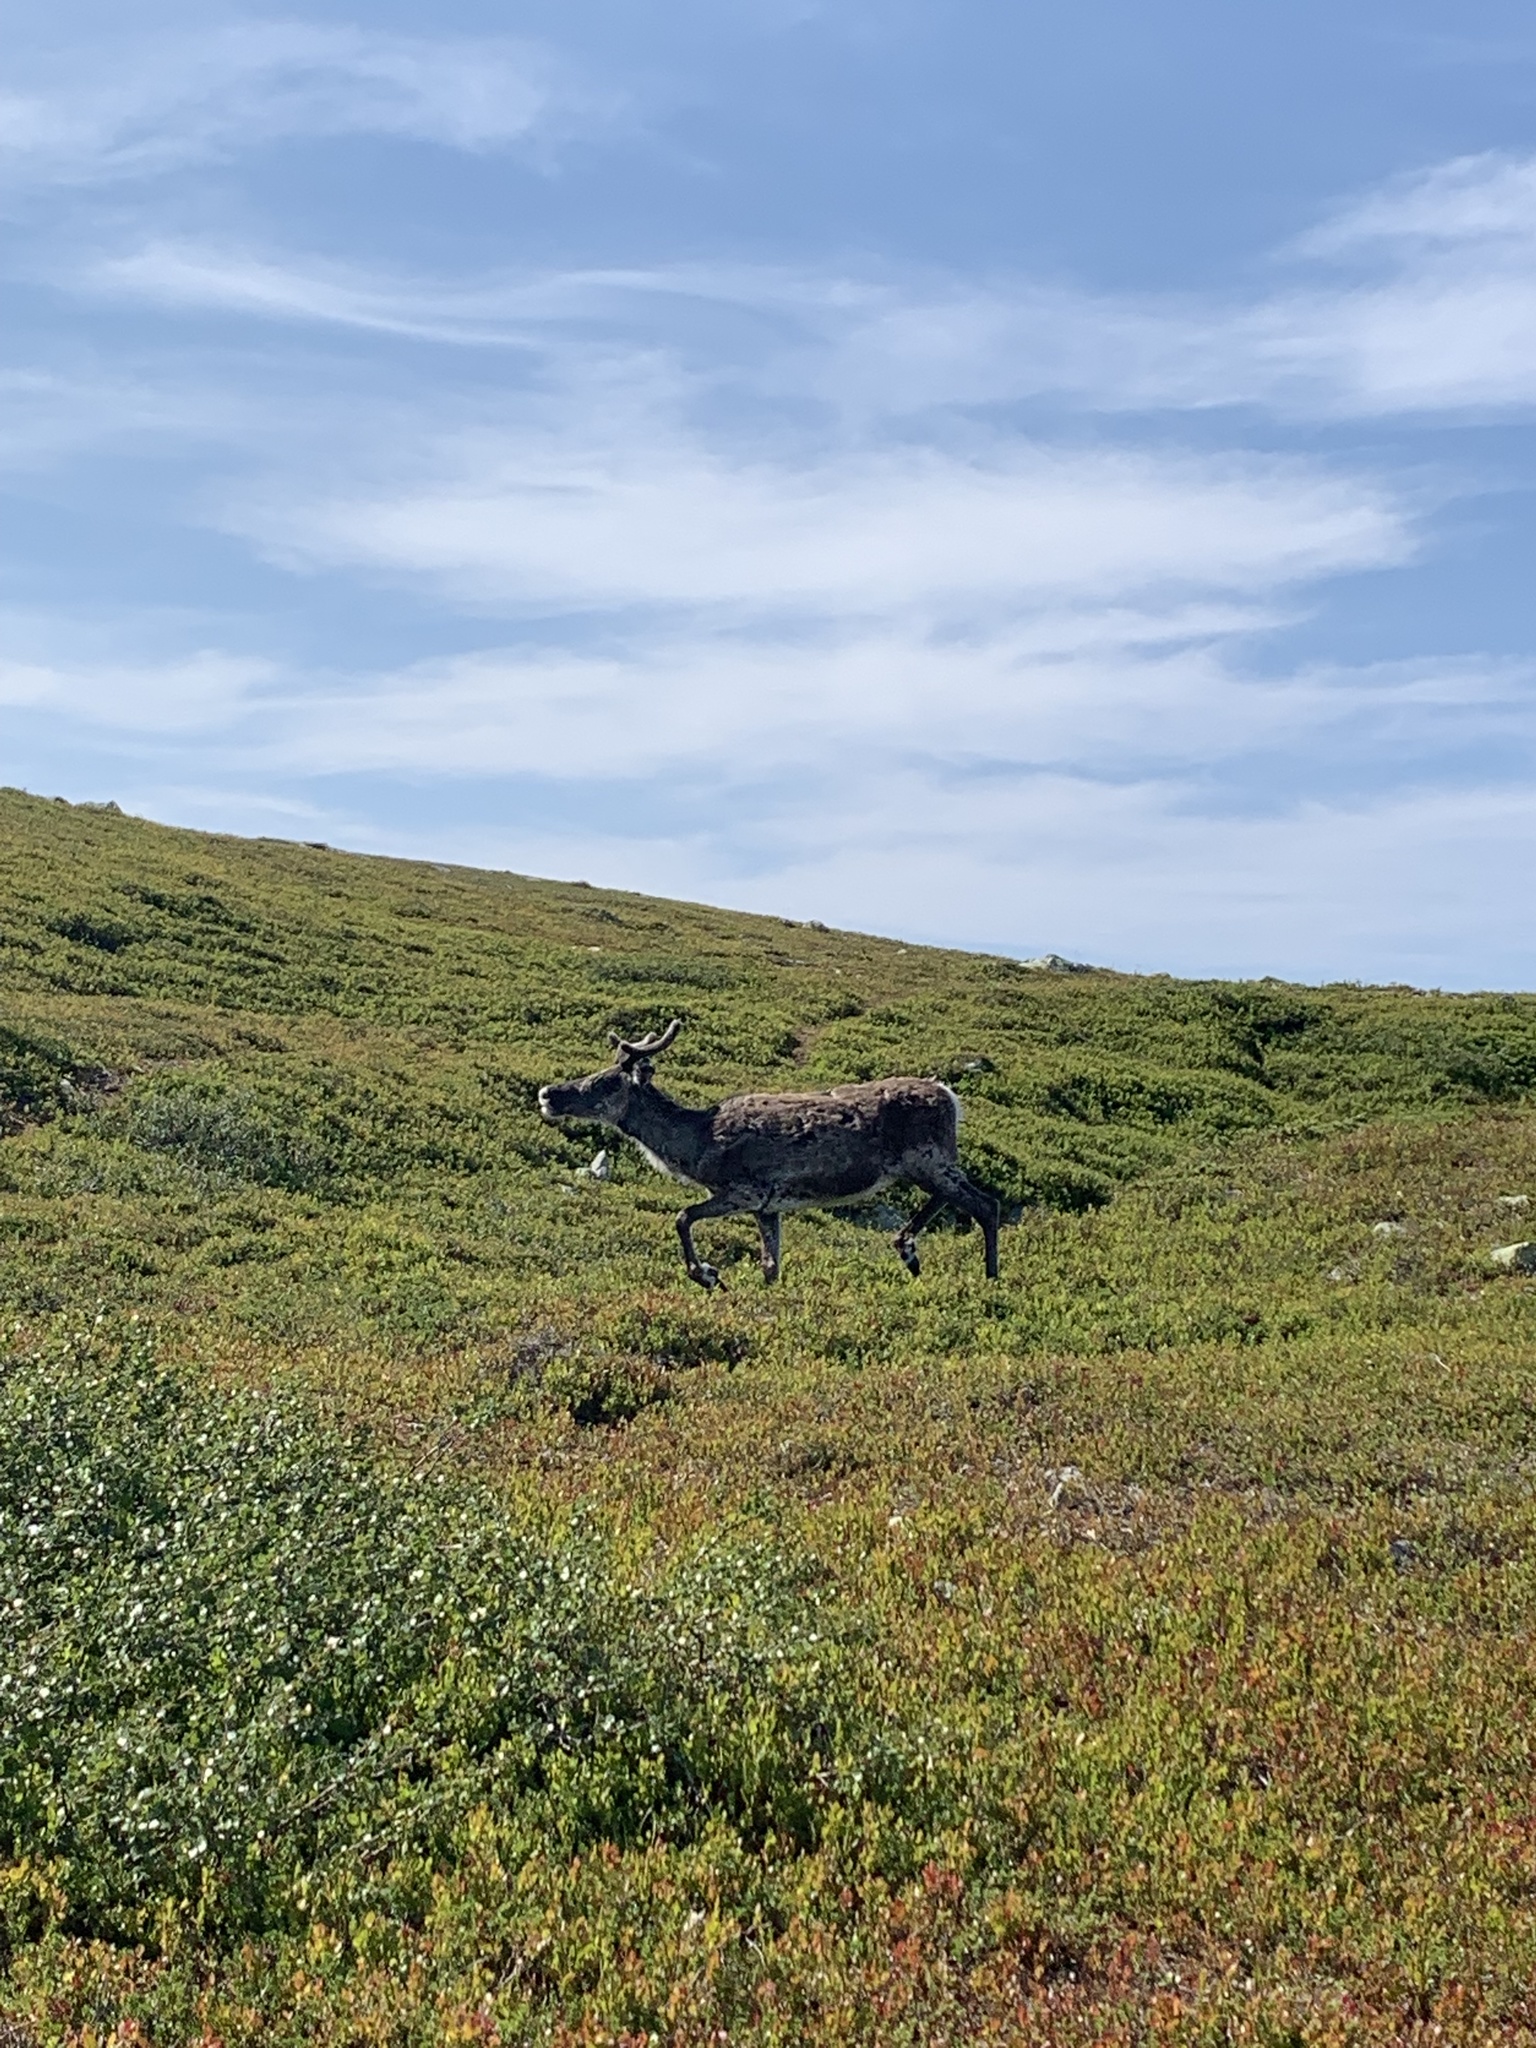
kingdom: Animalia
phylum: Chordata
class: Mammalia
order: Artiodactyla
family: Cervidae
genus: Rangifer
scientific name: Rangifer tarandus
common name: Reindeer
